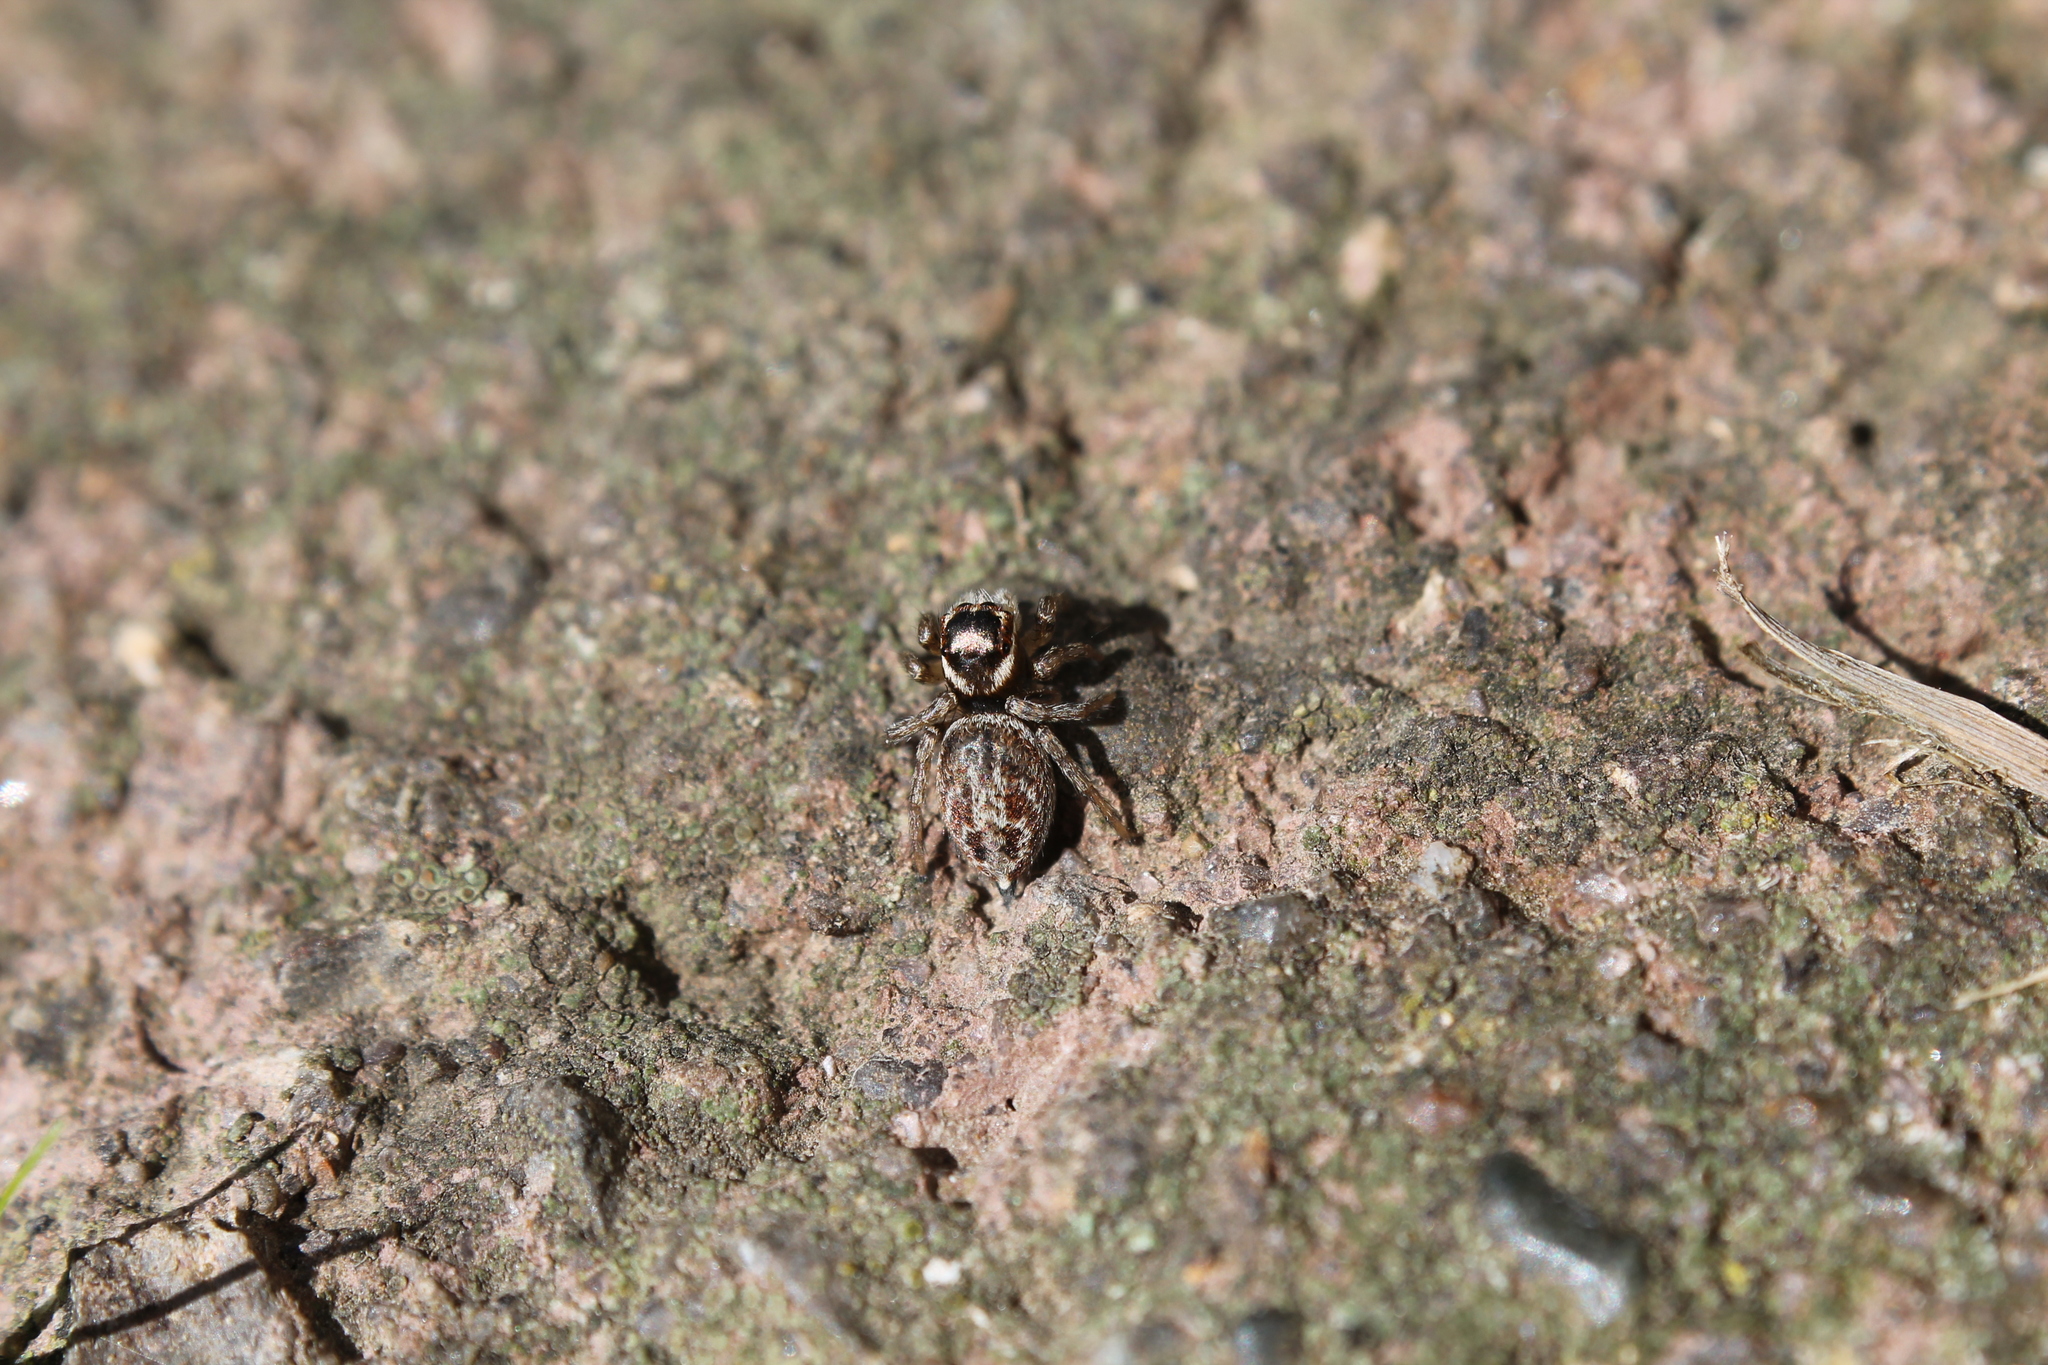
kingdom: Animalia
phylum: Arthropoda
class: Arachnida
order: Araneae
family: Salticidae
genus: Maratus
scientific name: Maratus griseus
